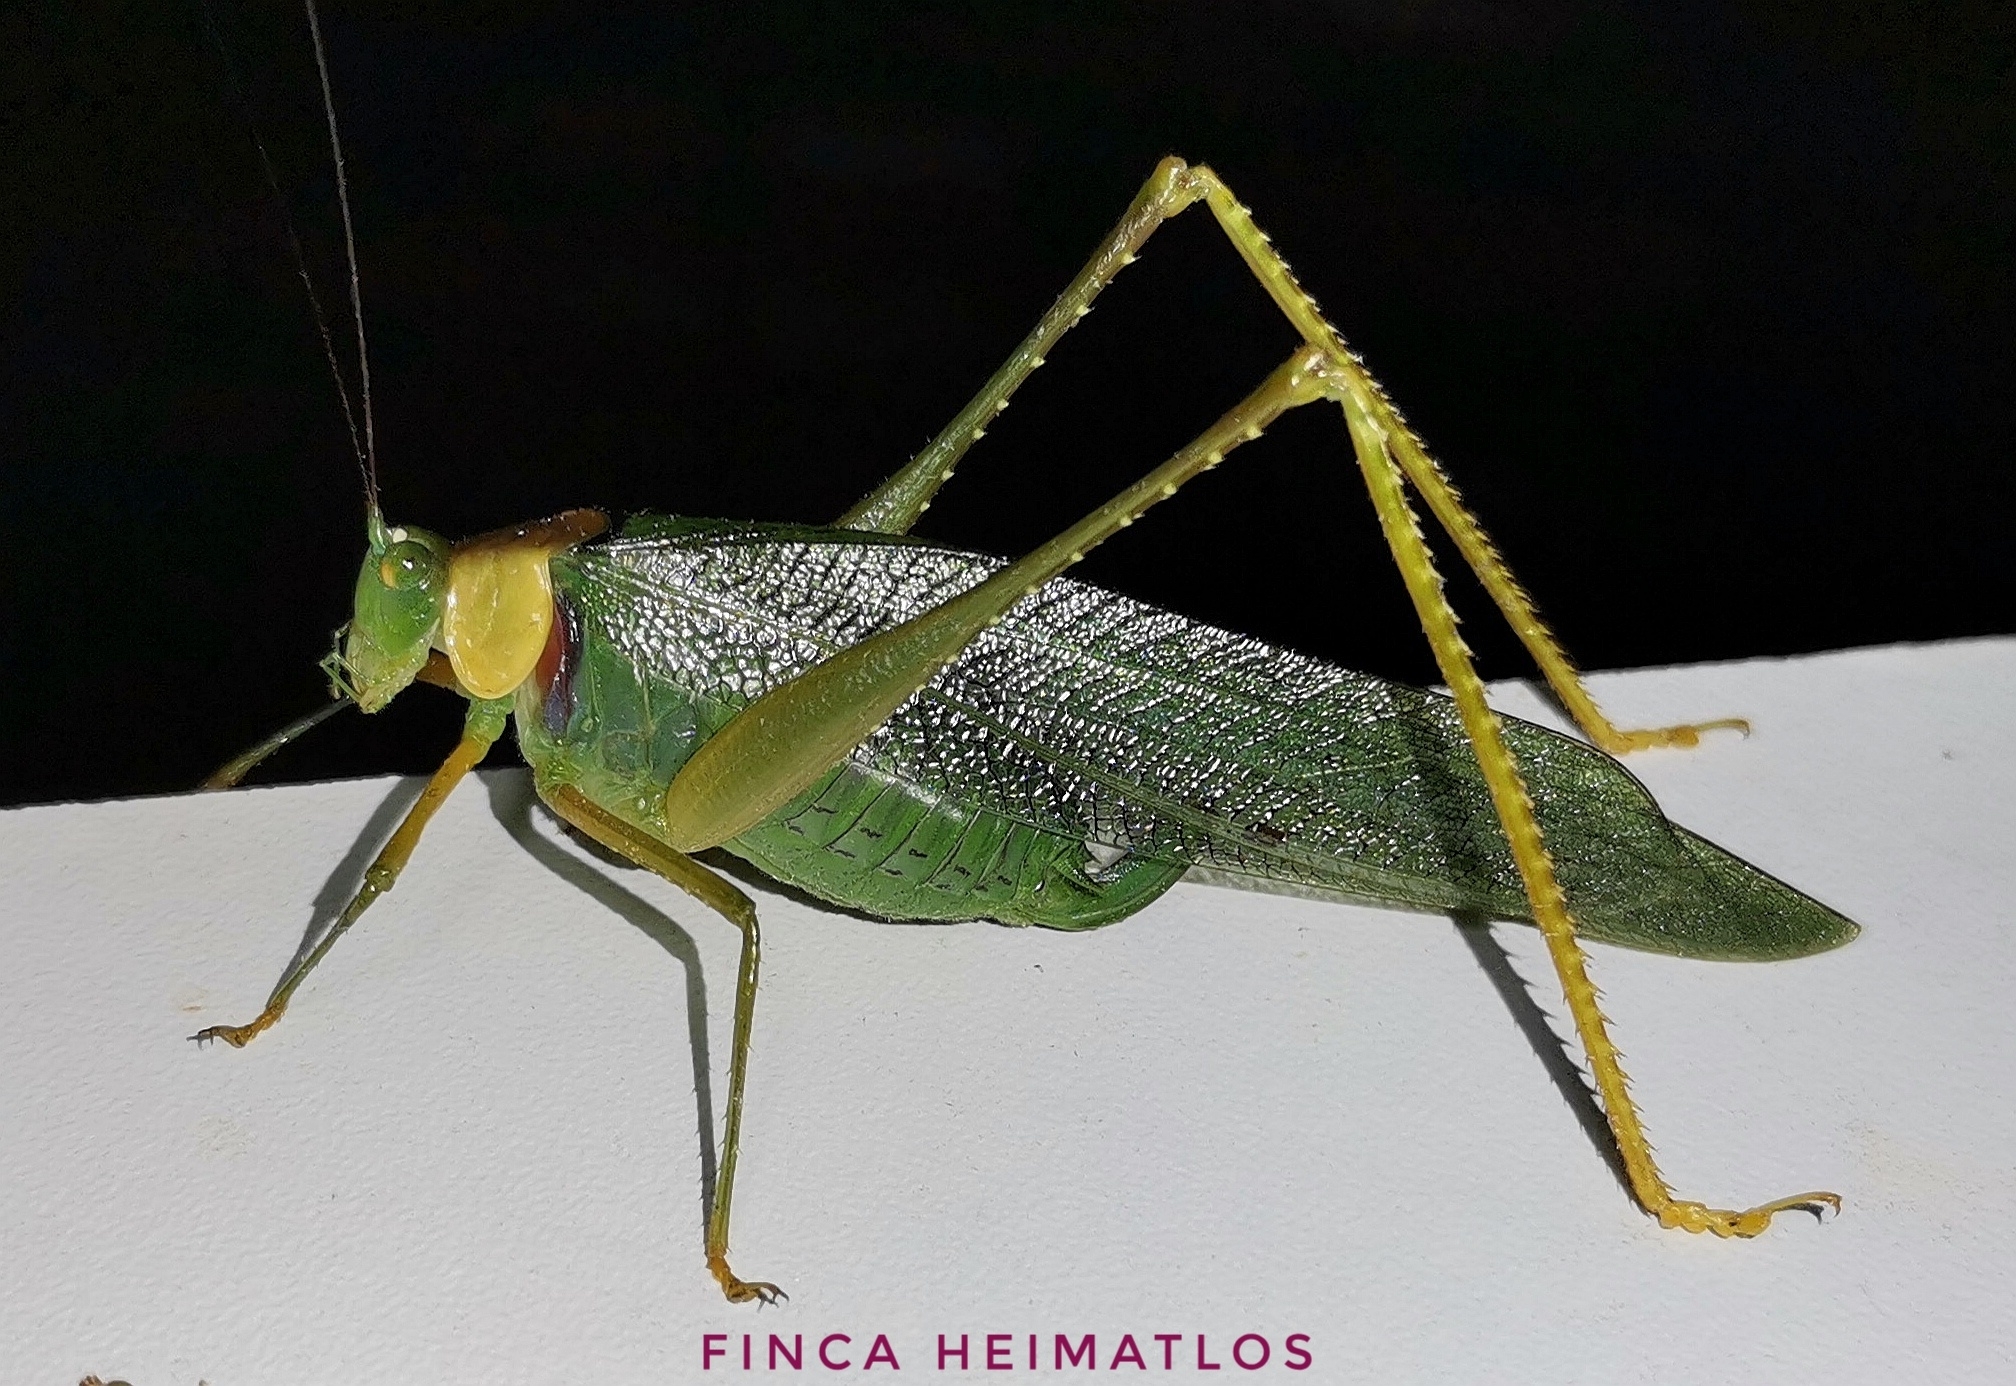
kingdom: Animalia
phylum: Arthropoda
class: Insecta
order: Orthoptera
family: Tettigoniidae
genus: Euceraia
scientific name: Euceraia atryx
